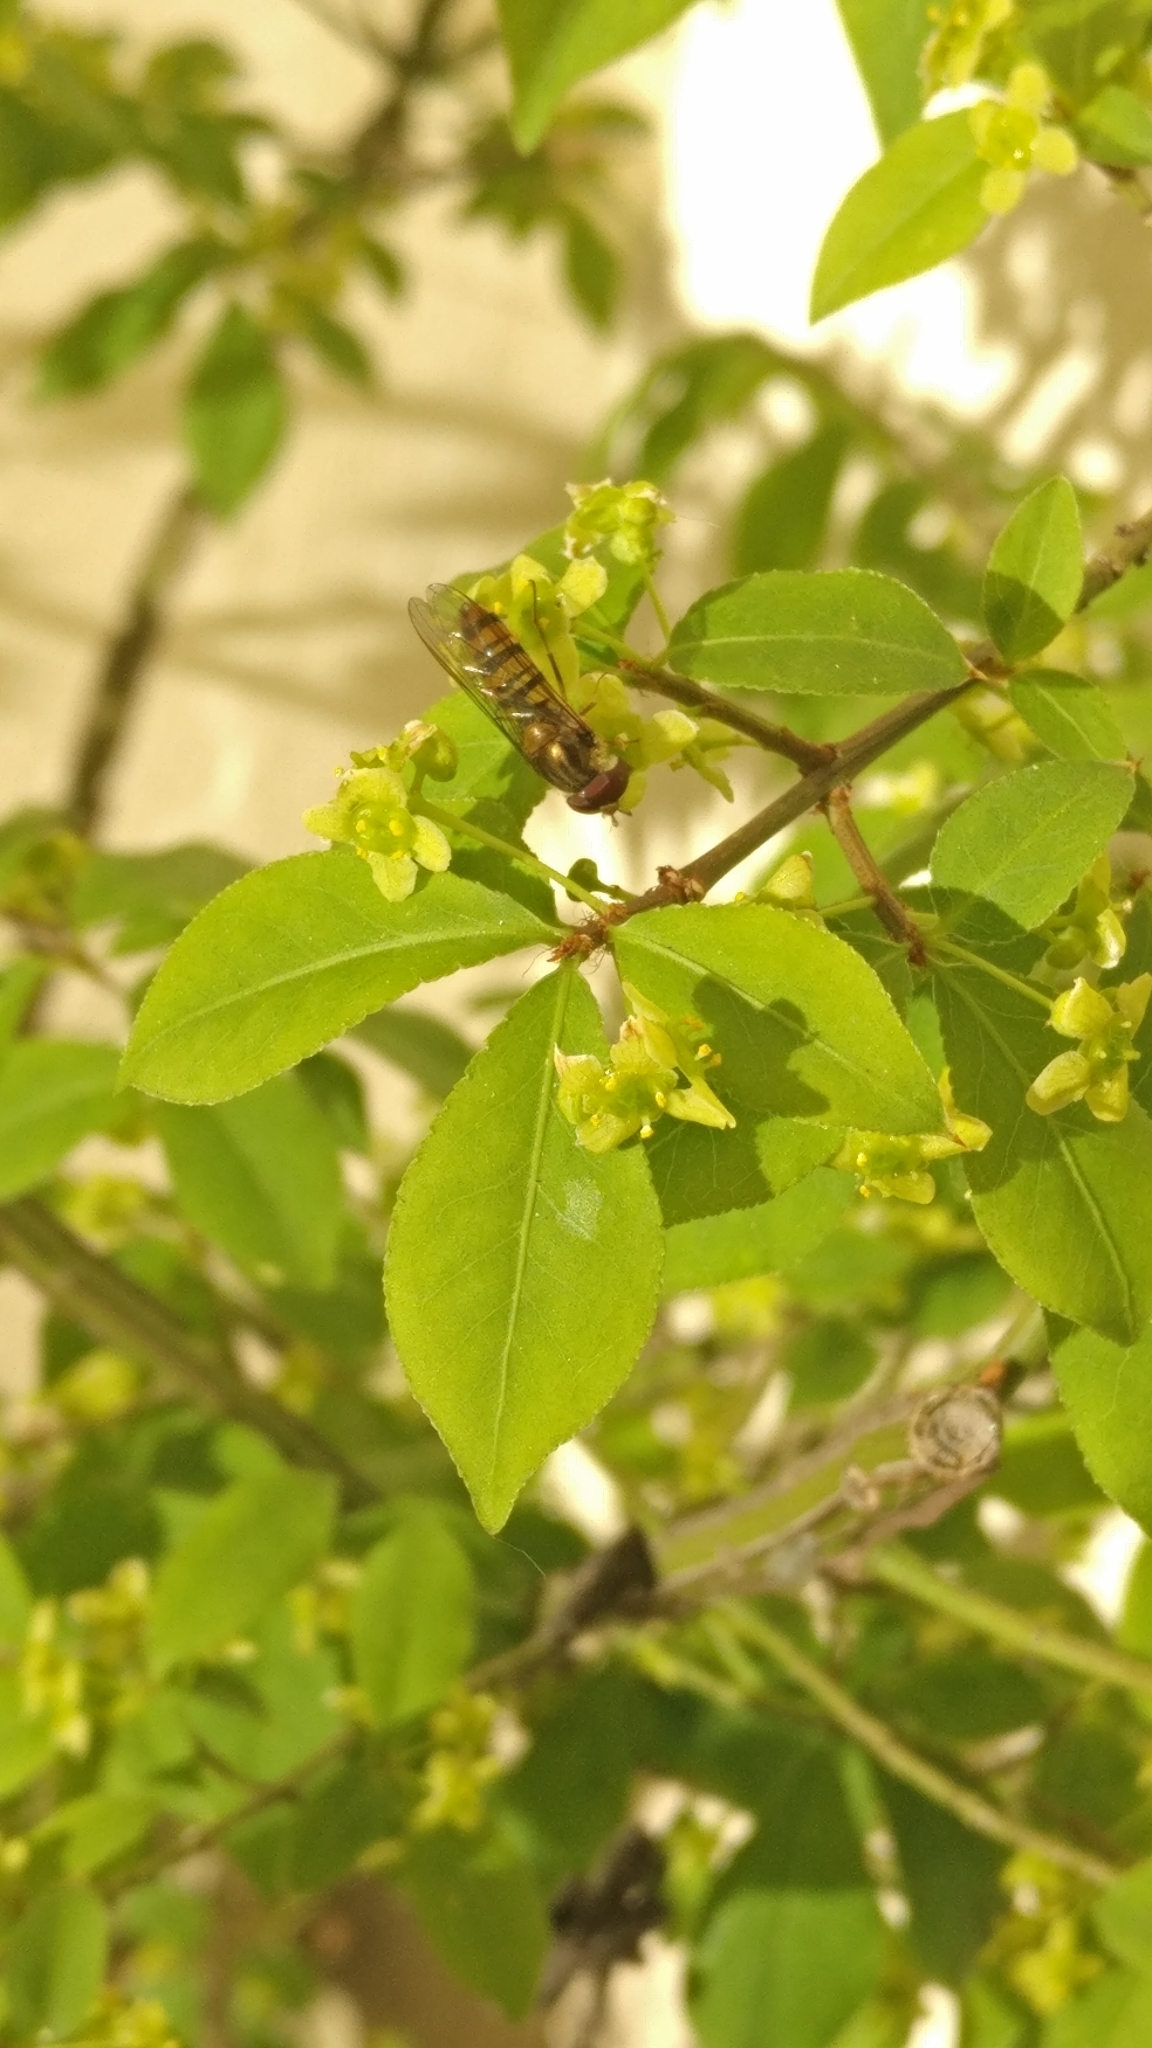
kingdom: Animalia
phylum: Arthropoda
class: Insecta
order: Diptera
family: Syrphidae
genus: Episyrphus
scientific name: Episyrphus balteatus
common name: Marmalade hoverfly
